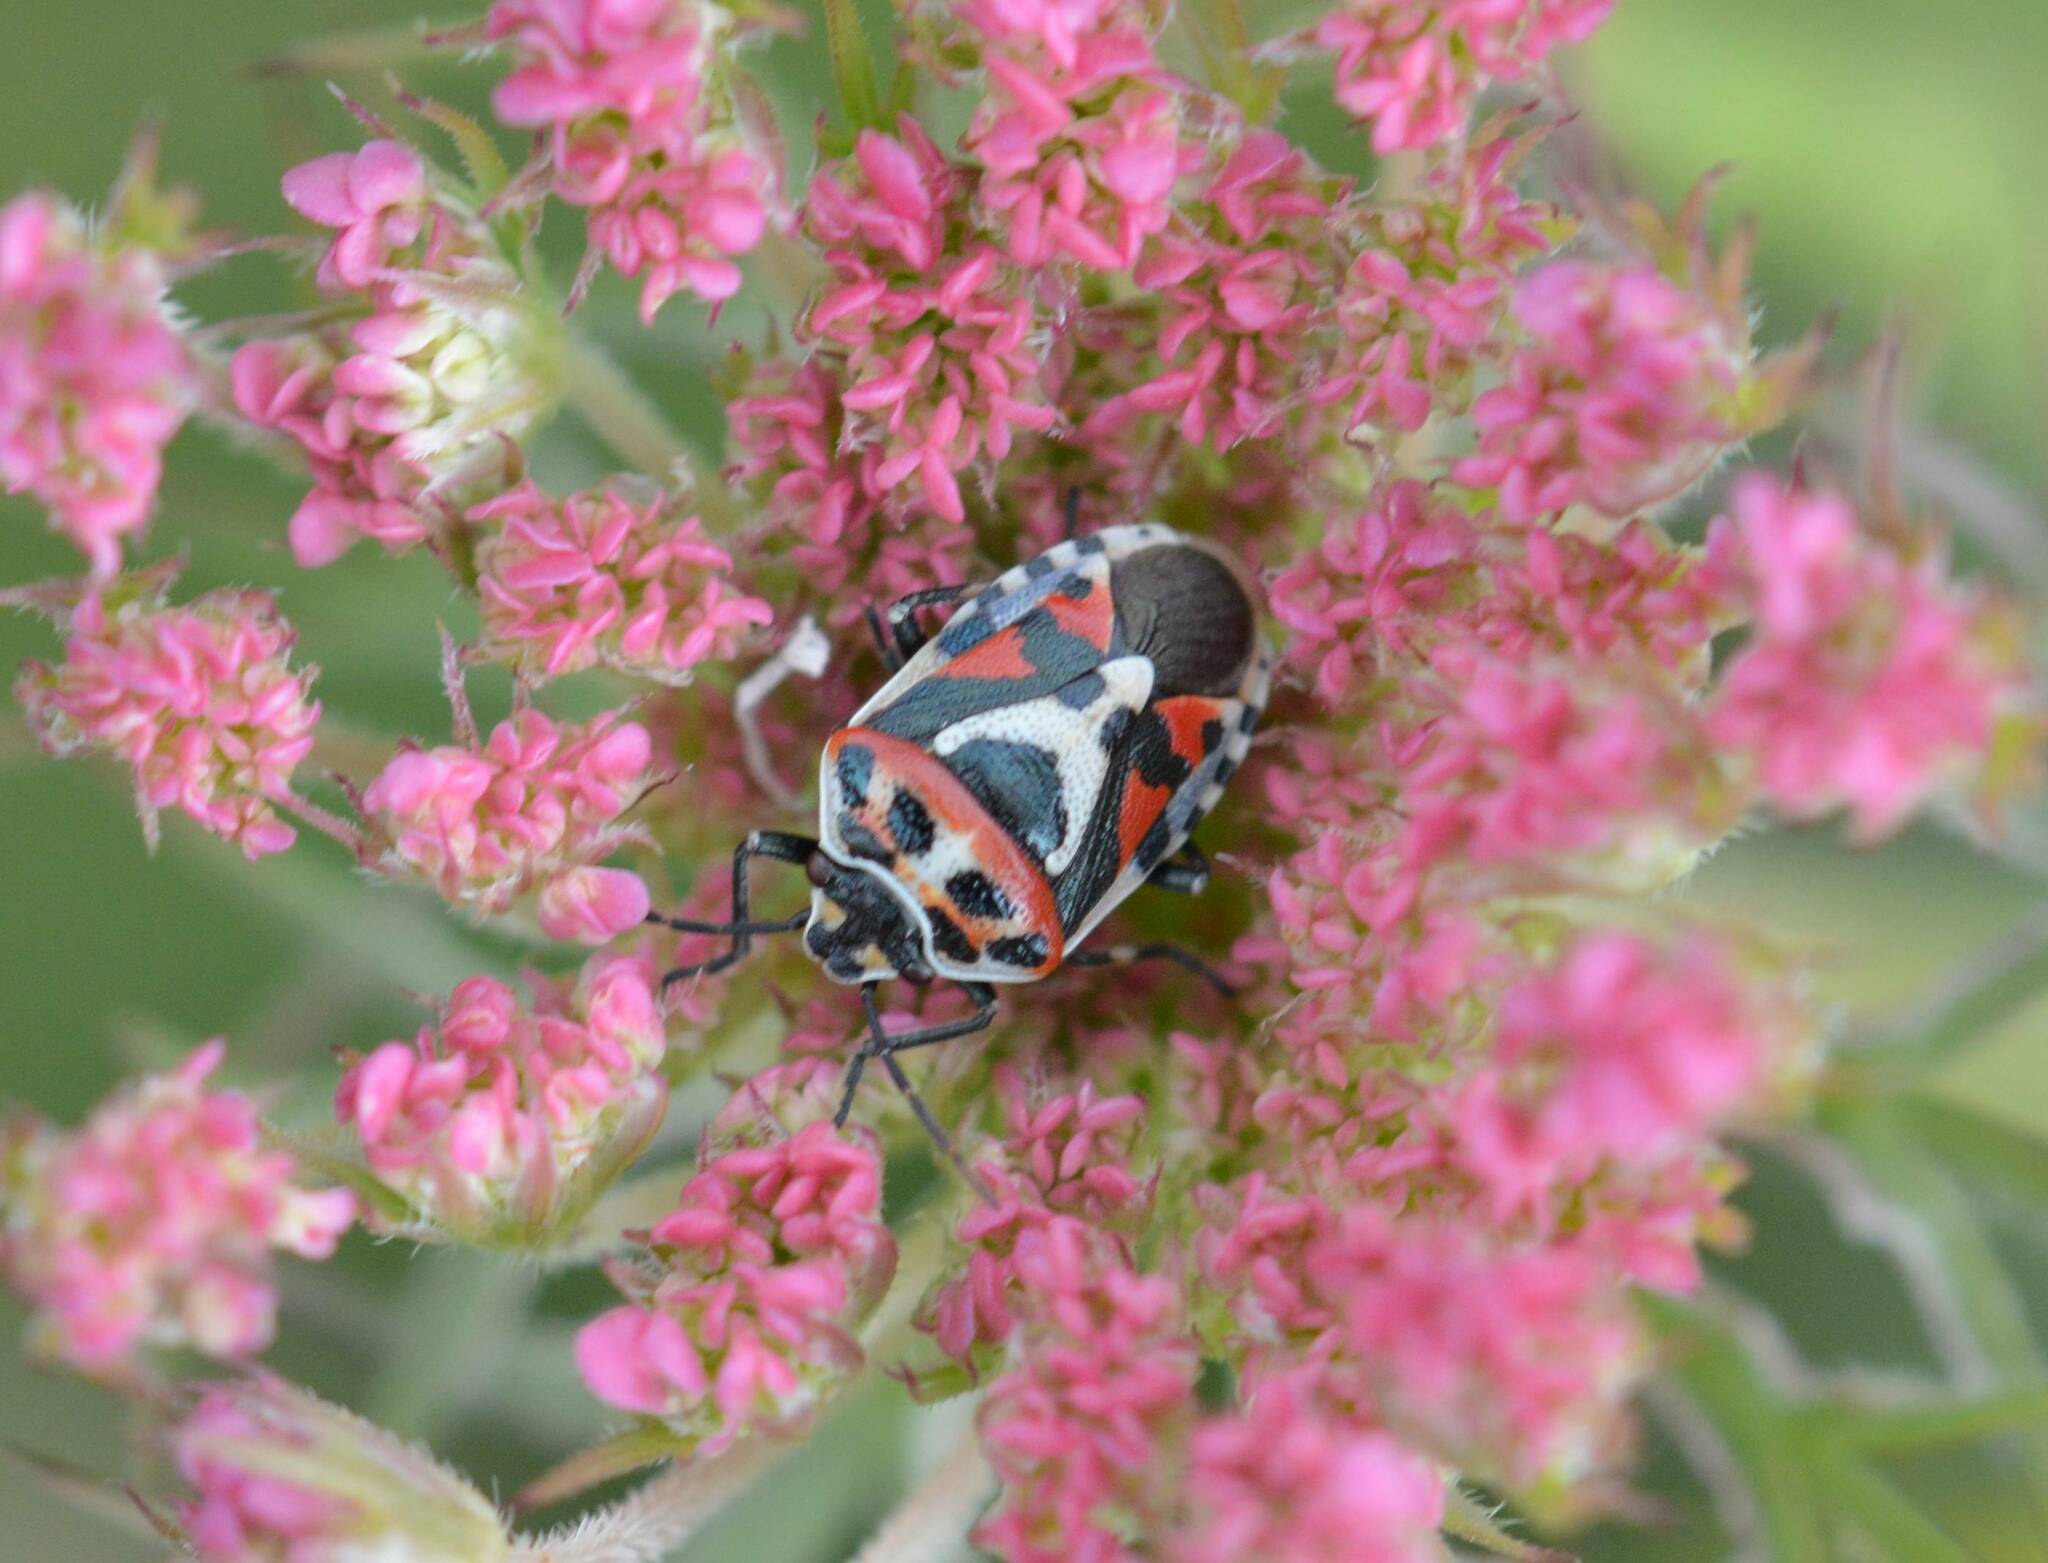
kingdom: Animalia
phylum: Arthropoda
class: Insecta
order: Hemiptera
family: Pentatomidae
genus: Eurydema
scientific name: Eurydema ornata
